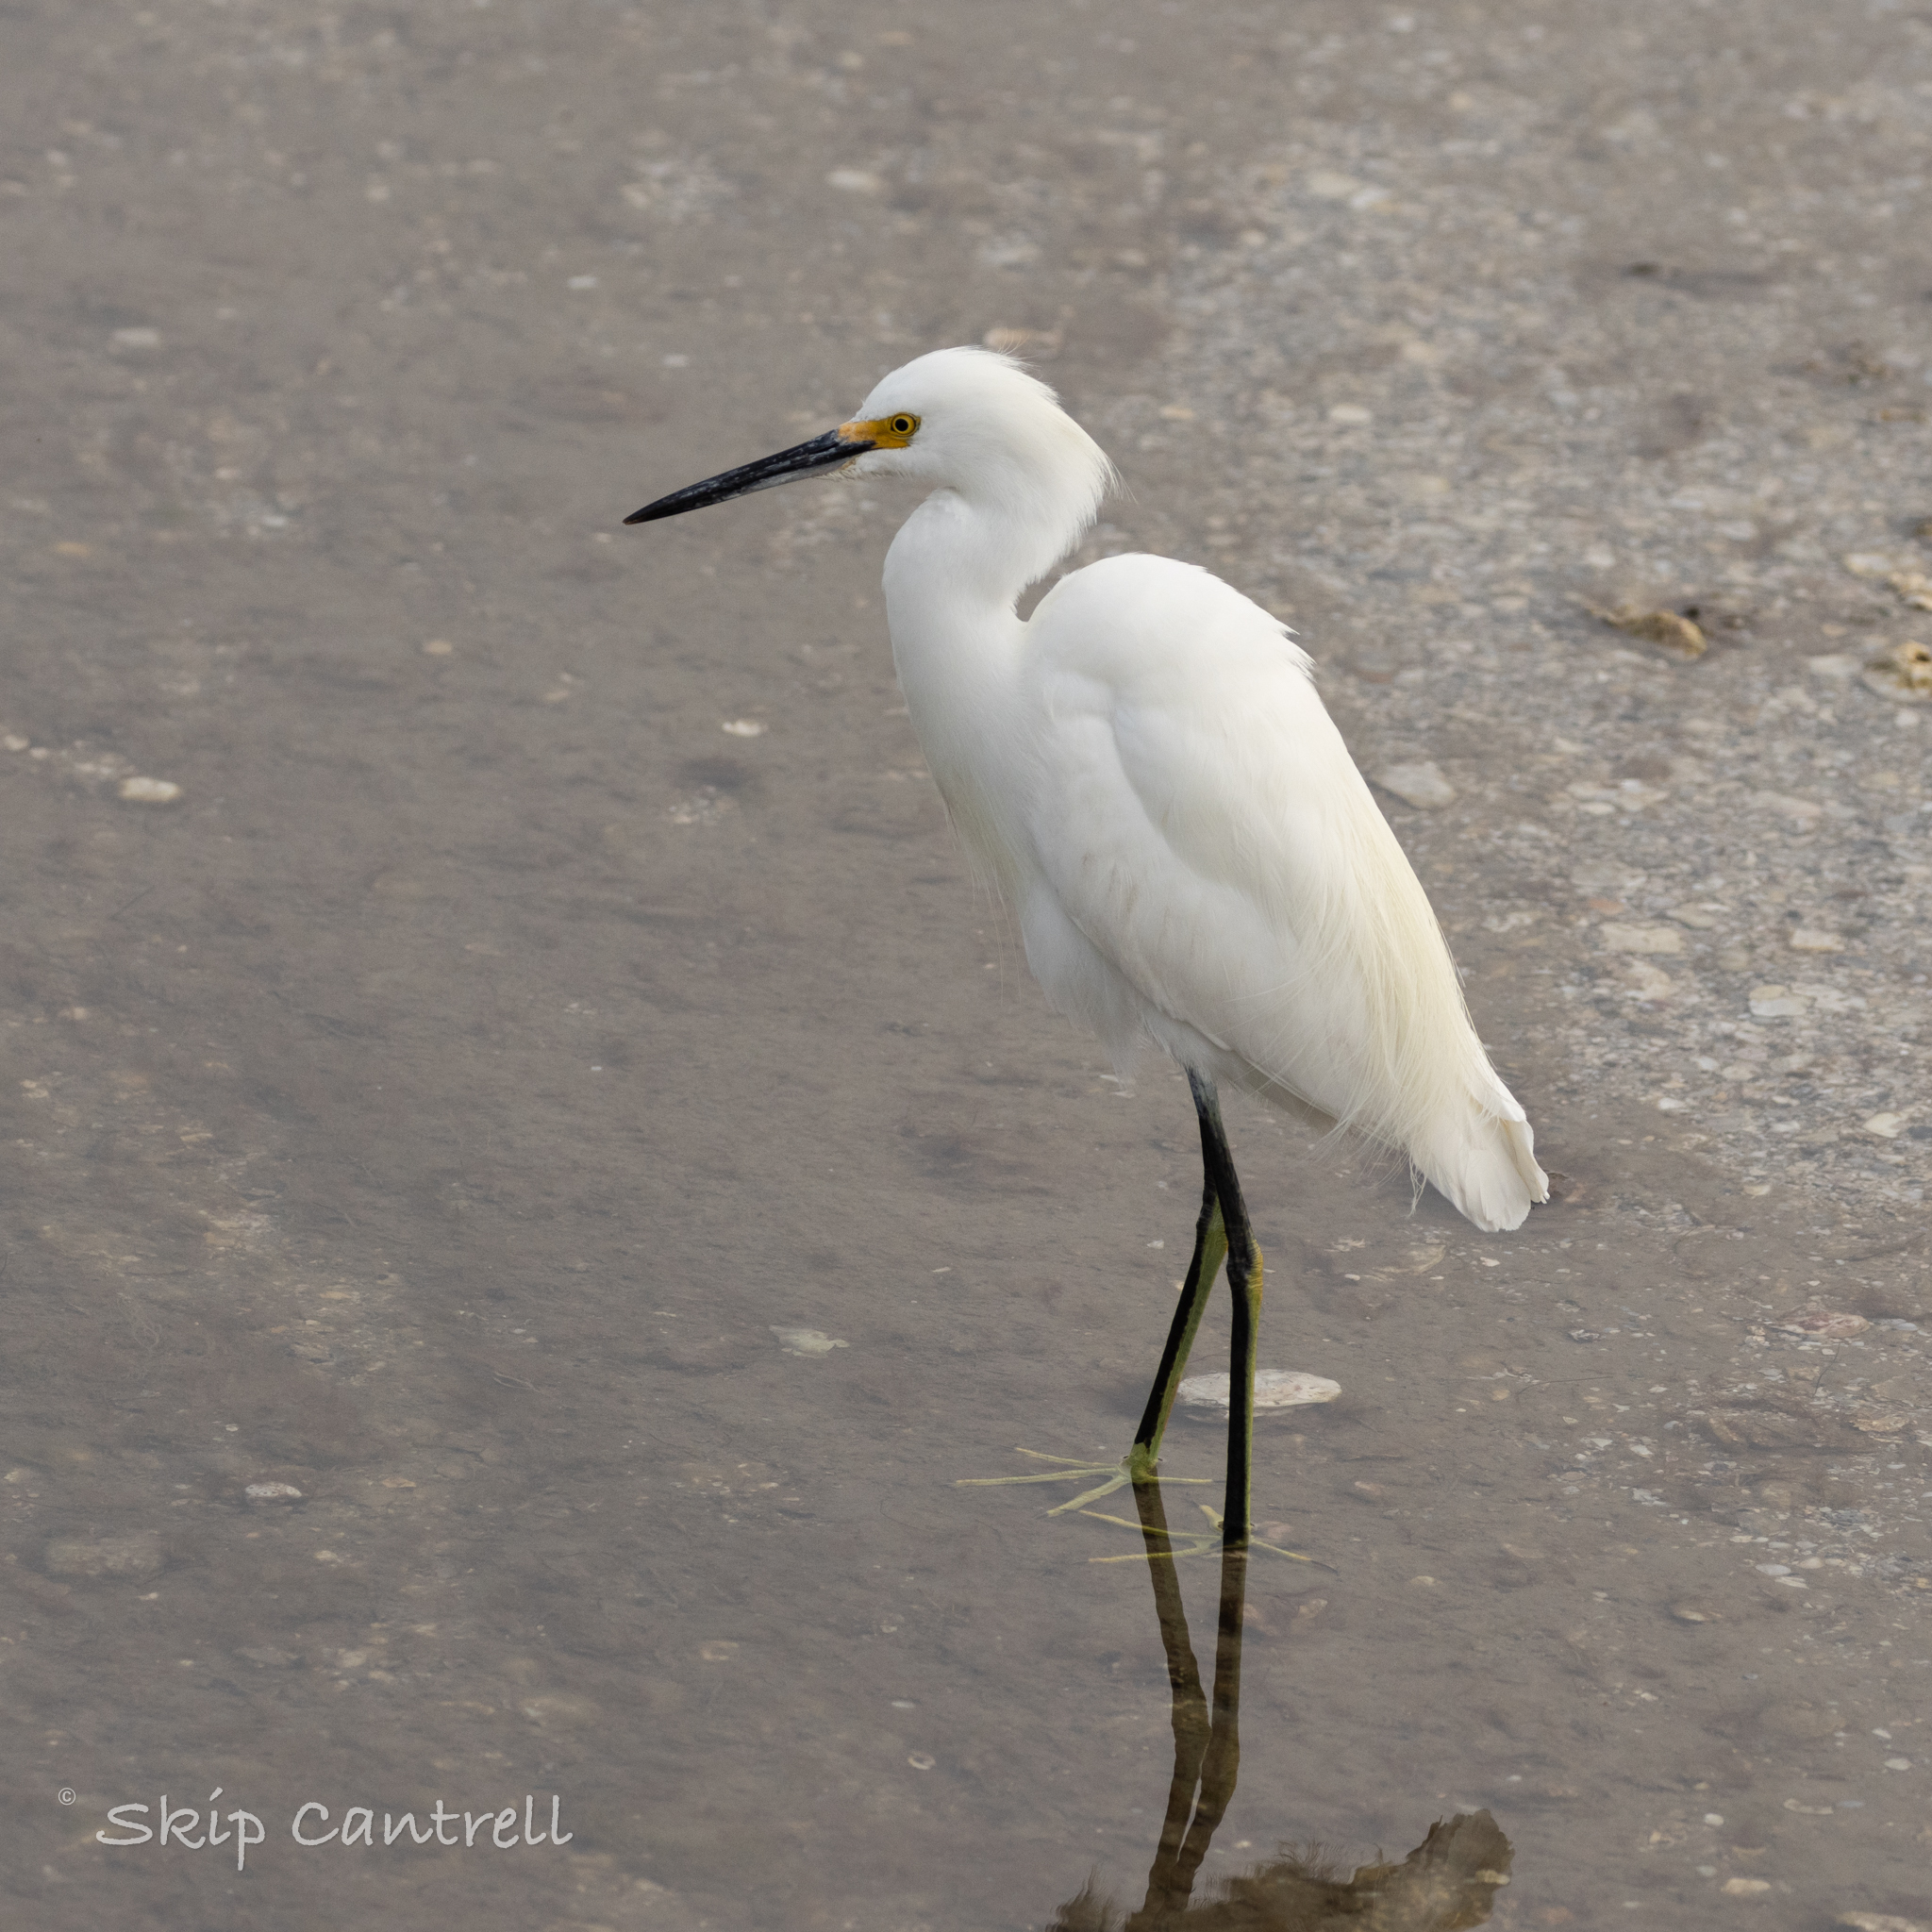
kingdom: Animalia
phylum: Chordata
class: Aves
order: Pelecaniformes
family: Ardeidae
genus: Egretta
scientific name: Egretta thula
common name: Snowy egret
